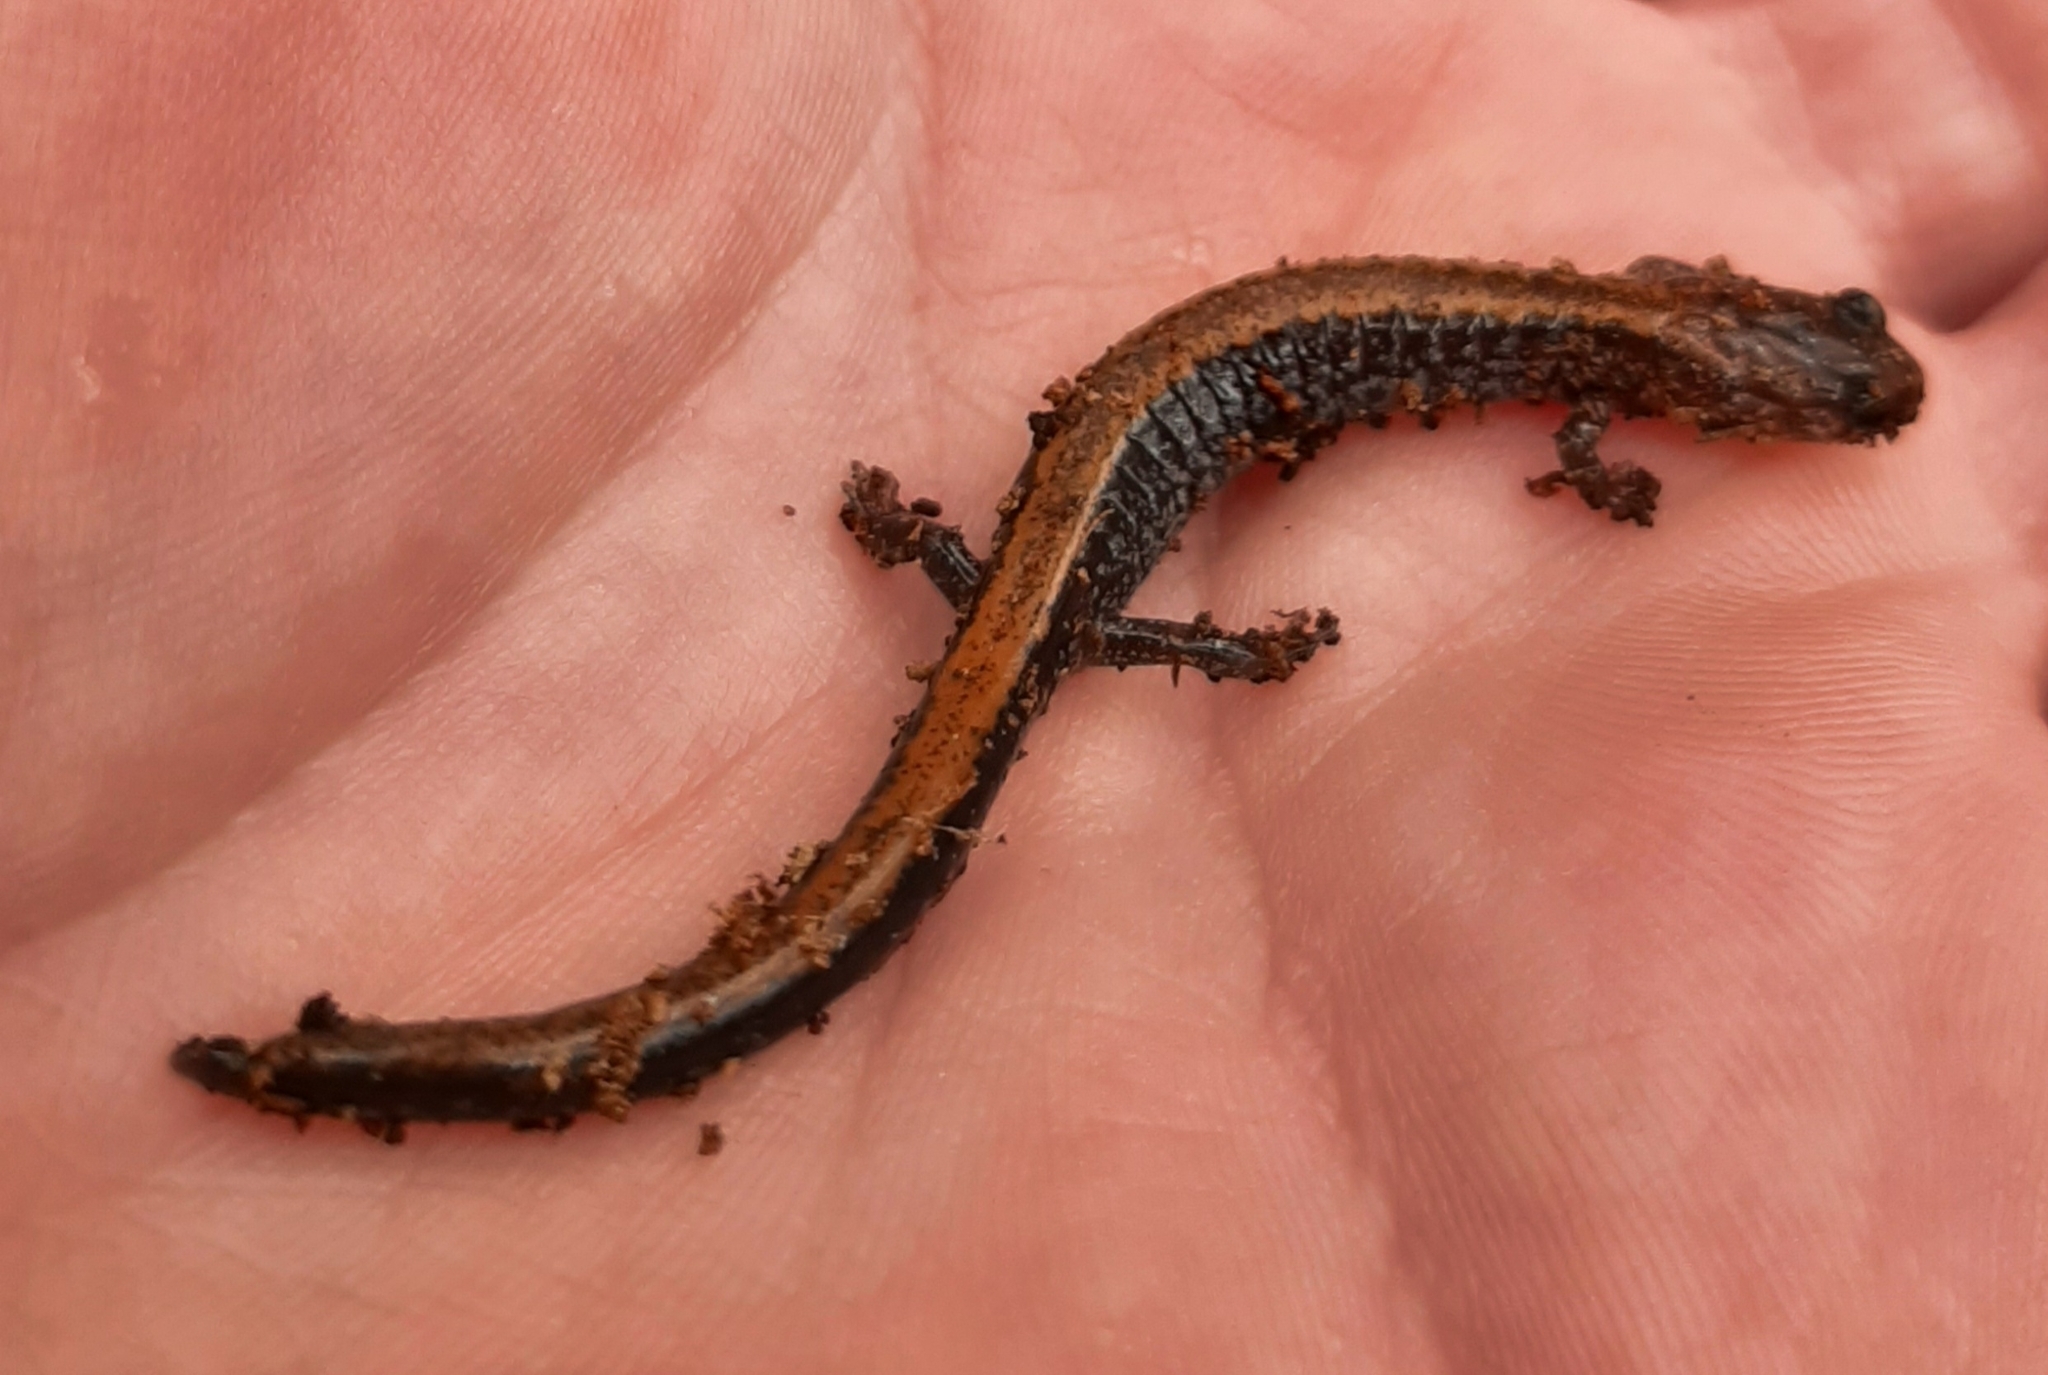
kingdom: Animalia
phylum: Chordata
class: Amphibia
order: Caudata
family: Plethodontidae
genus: Plethodon
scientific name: Plethodon cinereus
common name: Redback salamander
